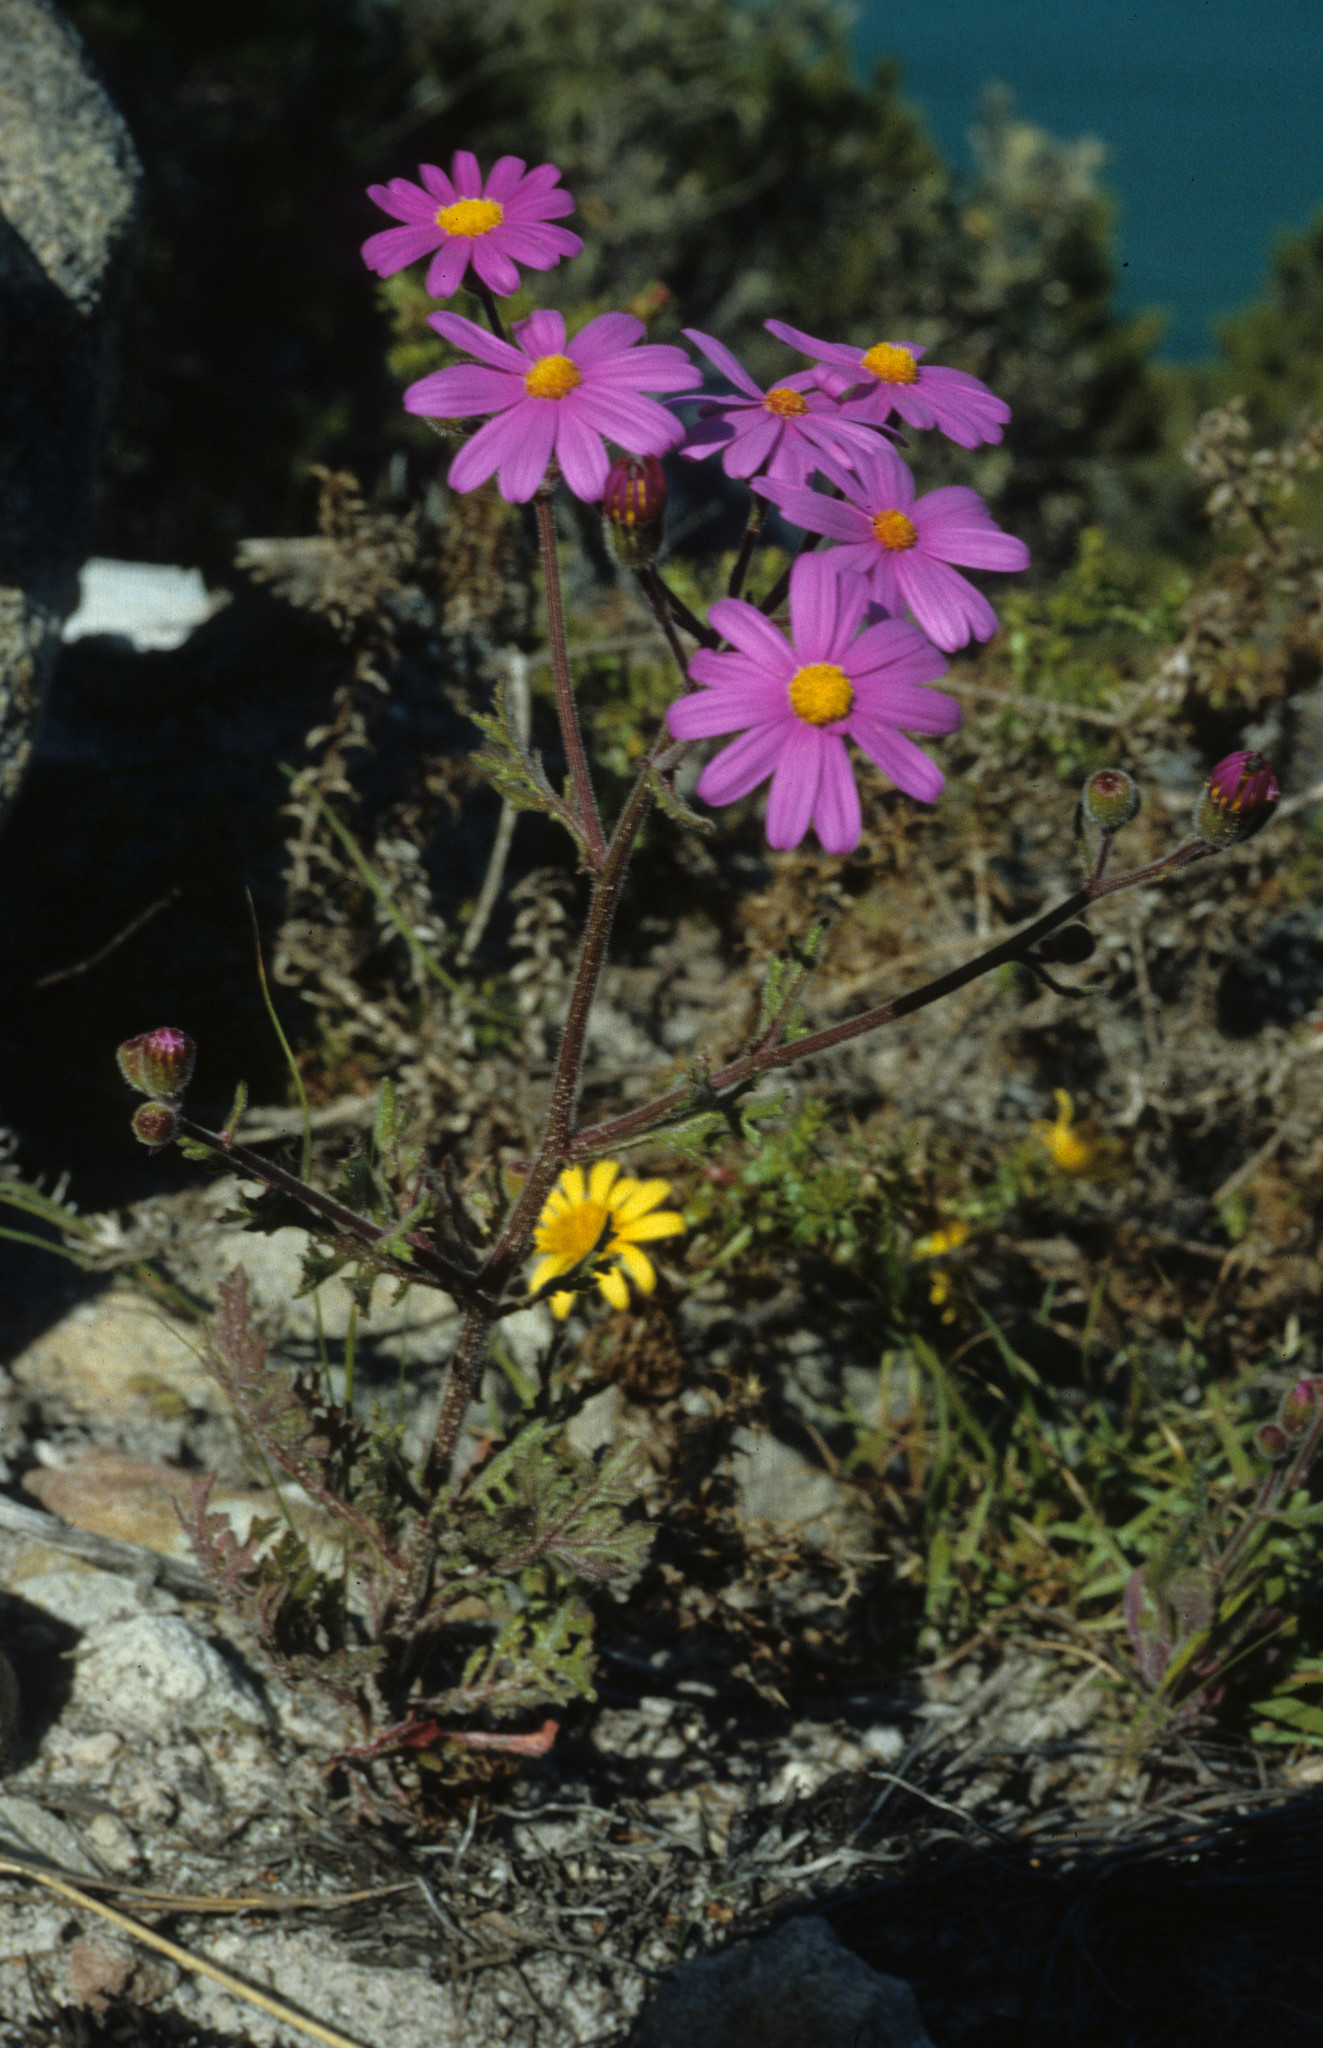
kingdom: Plantae
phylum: Tracheophyta
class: Magnoliopsida
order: Asterales
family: Asteraceae
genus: Senecio
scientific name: Senecio elegans
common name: Purple groundsel
